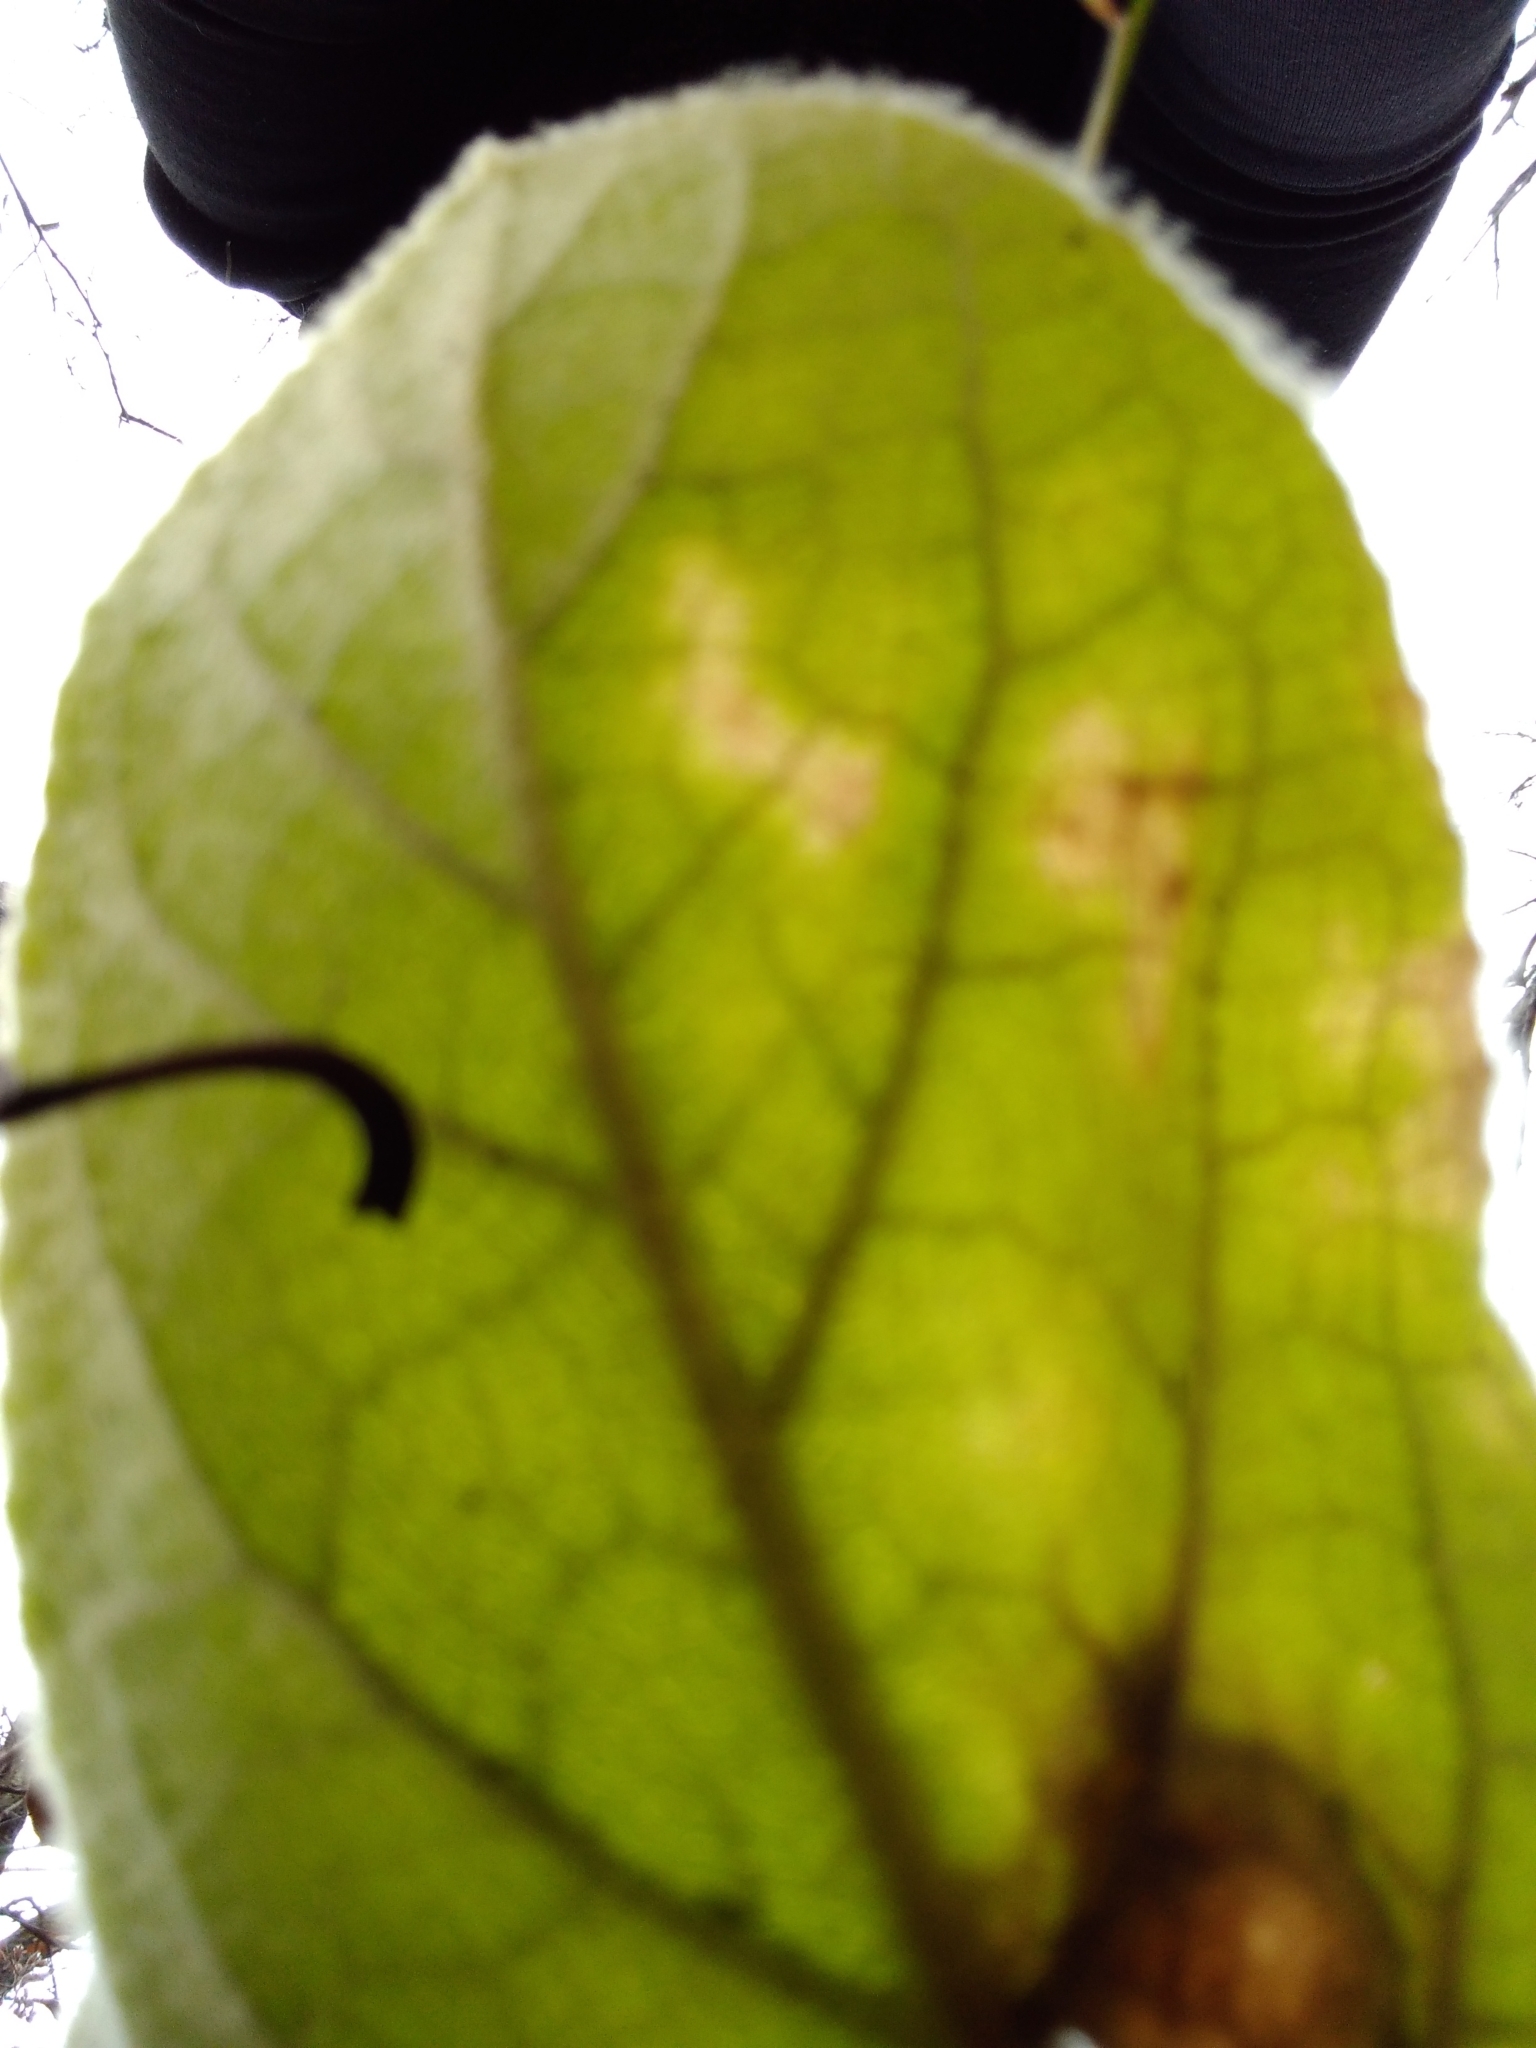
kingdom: Plantae
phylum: Tracheophyta
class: Magnoliopsida
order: Lamiales
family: Scrophulariaceae
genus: Verbascum
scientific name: Verbascum thapsus
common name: Common mullein
